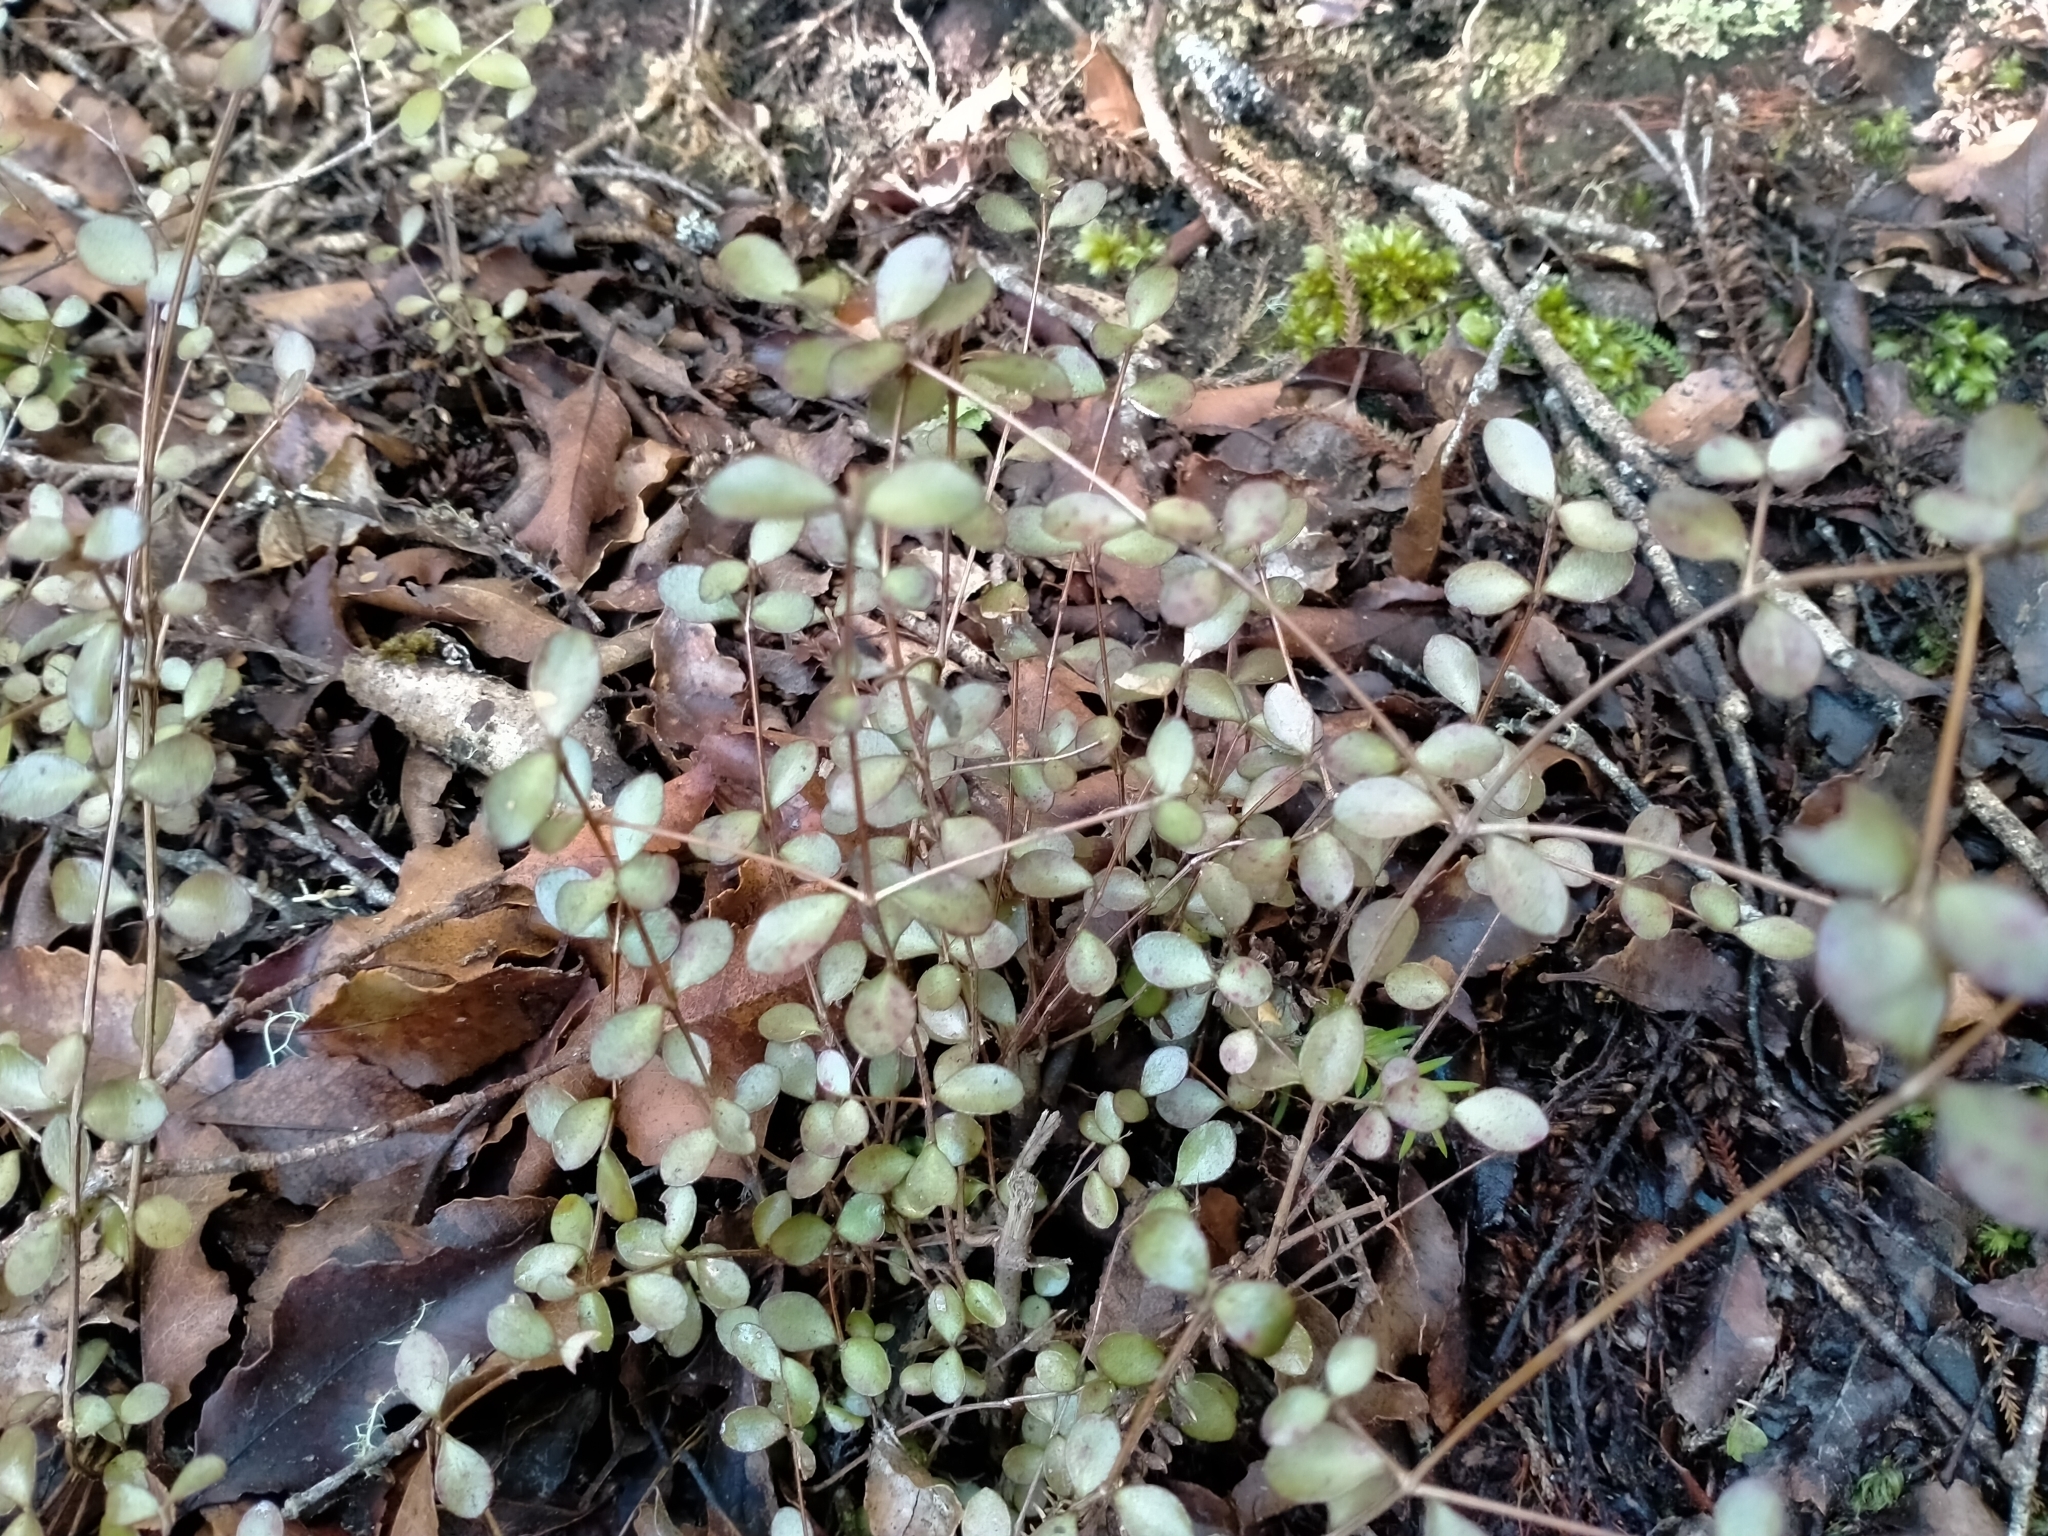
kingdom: Plantae
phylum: Tracheophyta
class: Magnoliopsida
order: Myrtales
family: Myrtaceae
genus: Neomyrtus
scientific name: Neomyrtus pedunculata
